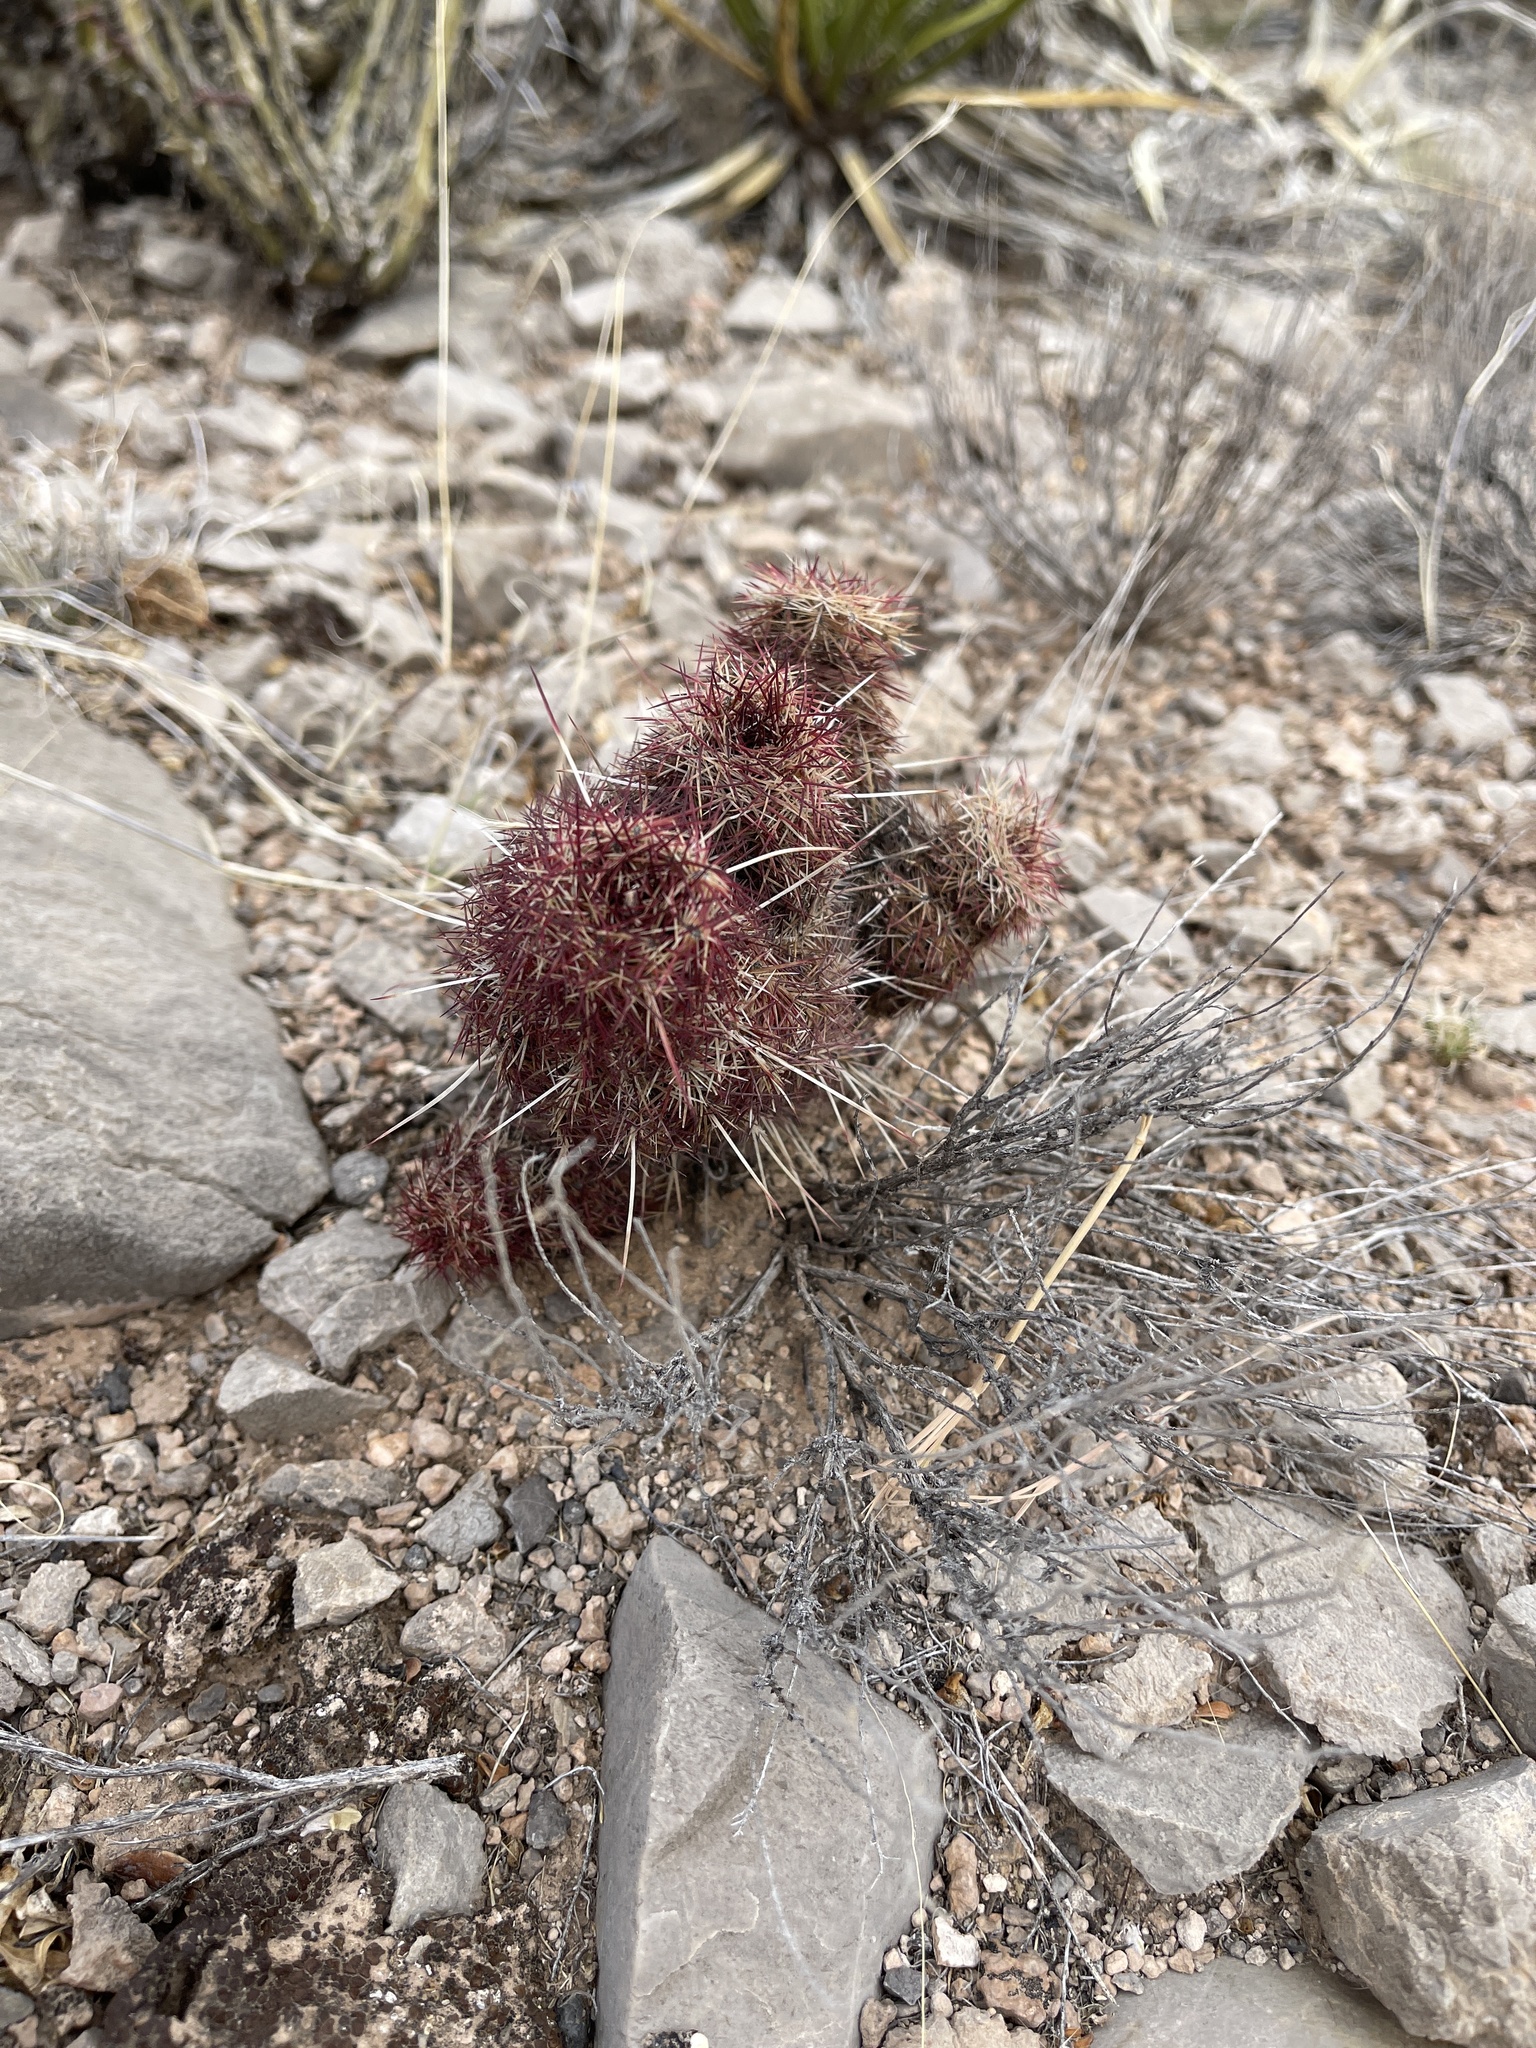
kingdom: Plantae
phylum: Tracheophyta
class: Magnoliopsida
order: Caryophyllales
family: Cactaceae
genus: Echinocereus
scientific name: Echinocereus viridiflorus
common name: Nylon hedgehog cactus
